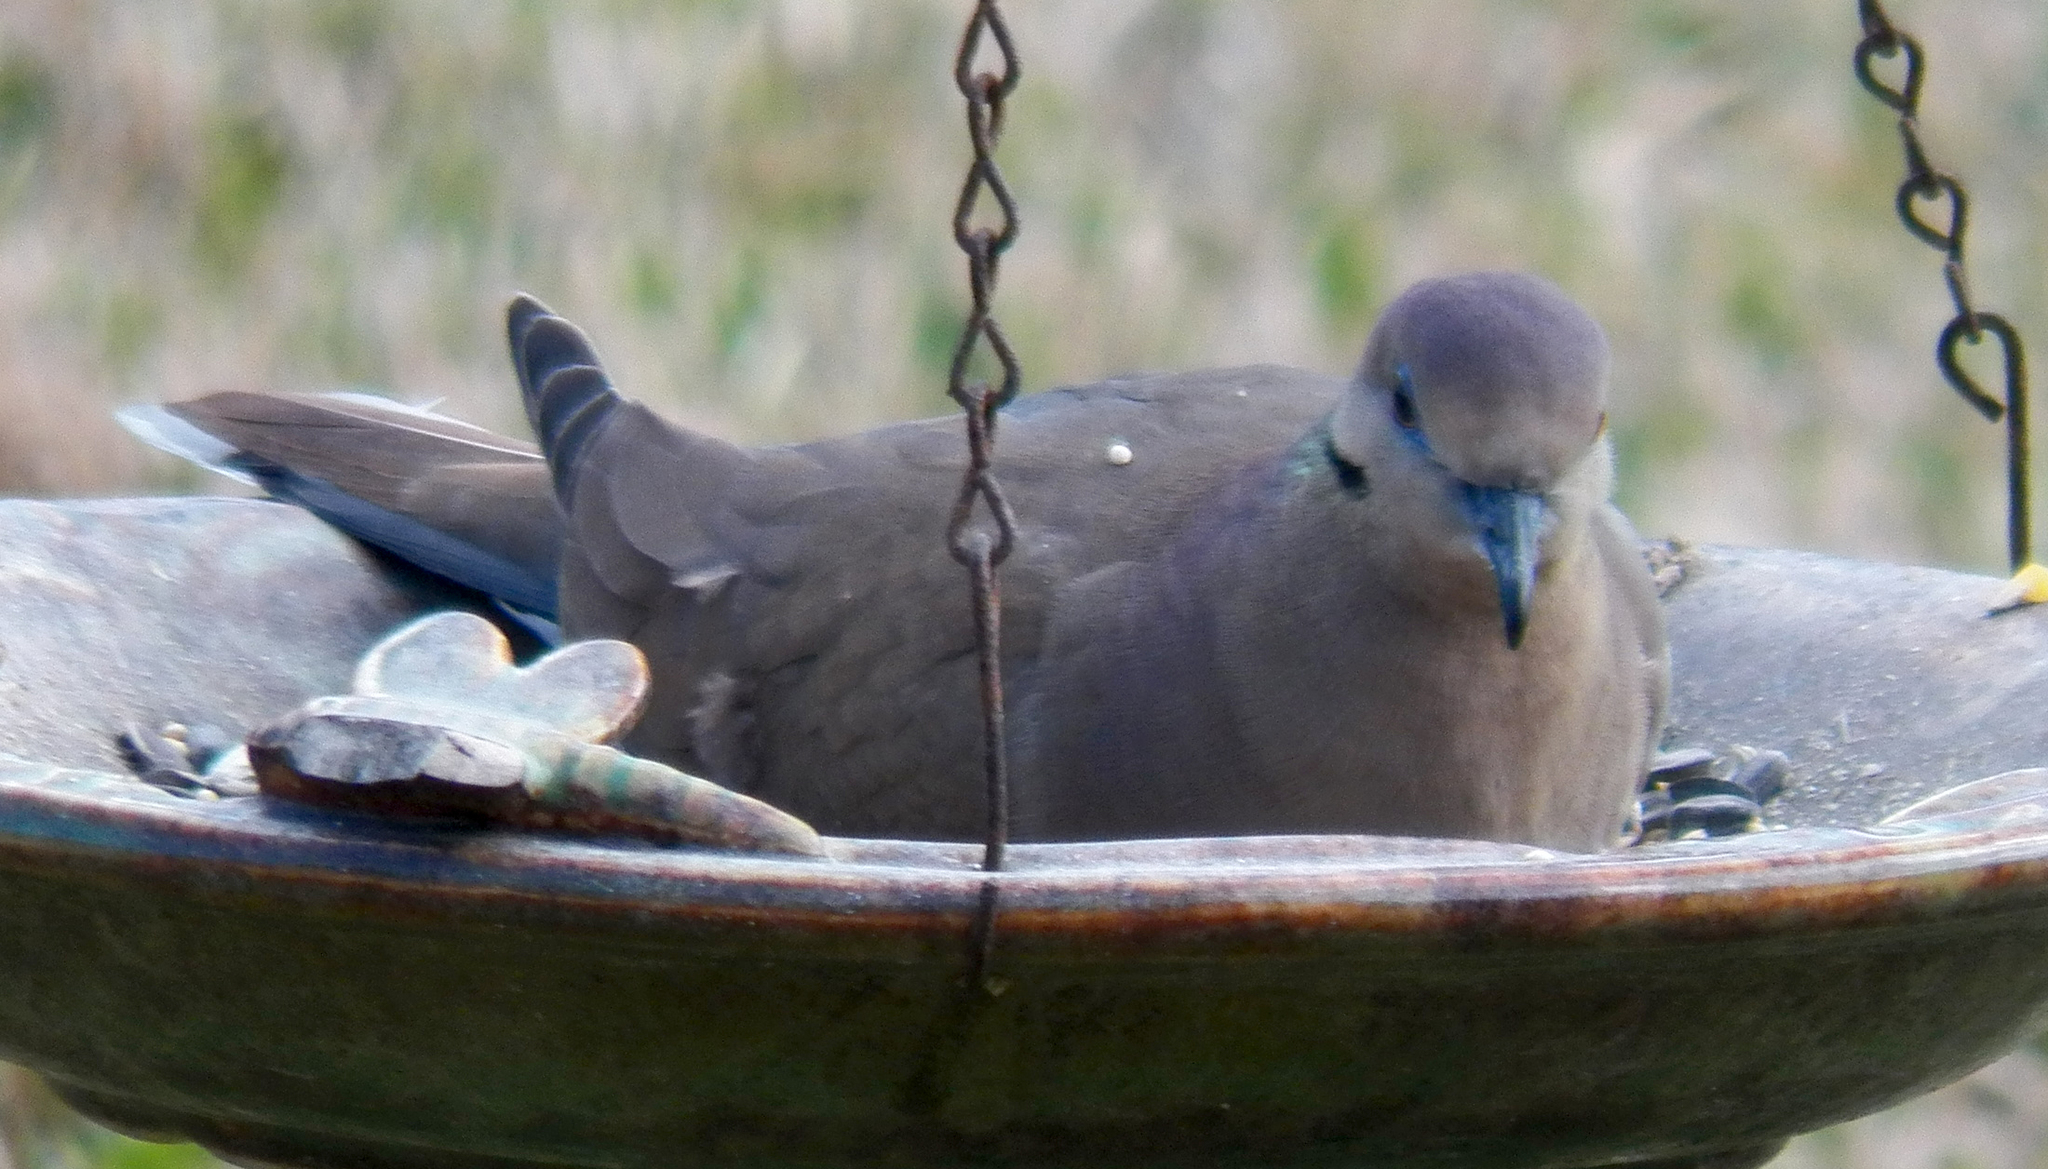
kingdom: Animalia
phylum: Chordata
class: Aves
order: Columbiformes
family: Columbidae
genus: Zenaida
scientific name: Zenaida asiatica
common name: White-winged dove
